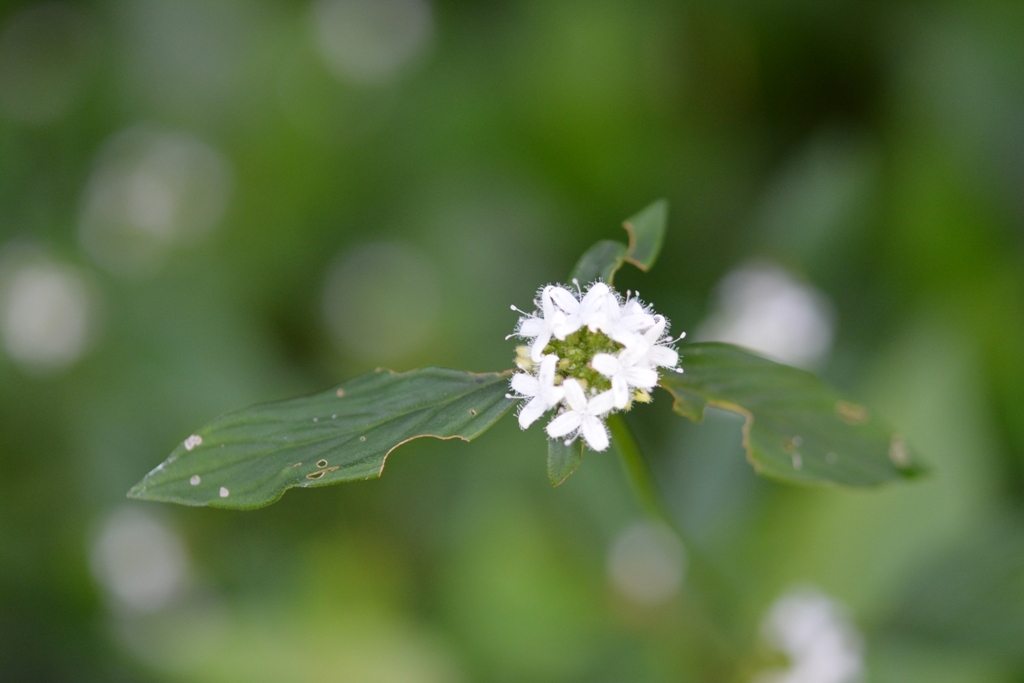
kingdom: Plantae
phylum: Tracheophyta
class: Magnoliopsida
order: Gentianales
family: Rubiaceae
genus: Spermacoce
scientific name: Spermacoce remota
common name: Woodland false buttonweed
